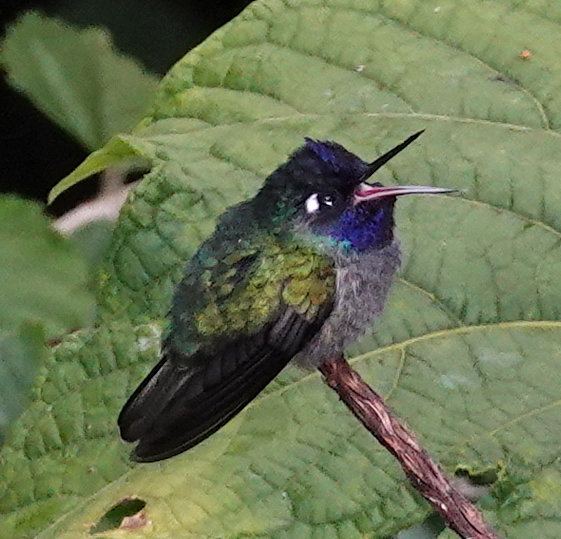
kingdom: Animalia
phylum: Chordata
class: Aves
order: Apodiformes
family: Trochilidae
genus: Klais
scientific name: Klais guimeti
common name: Violet-headed hummingbird
